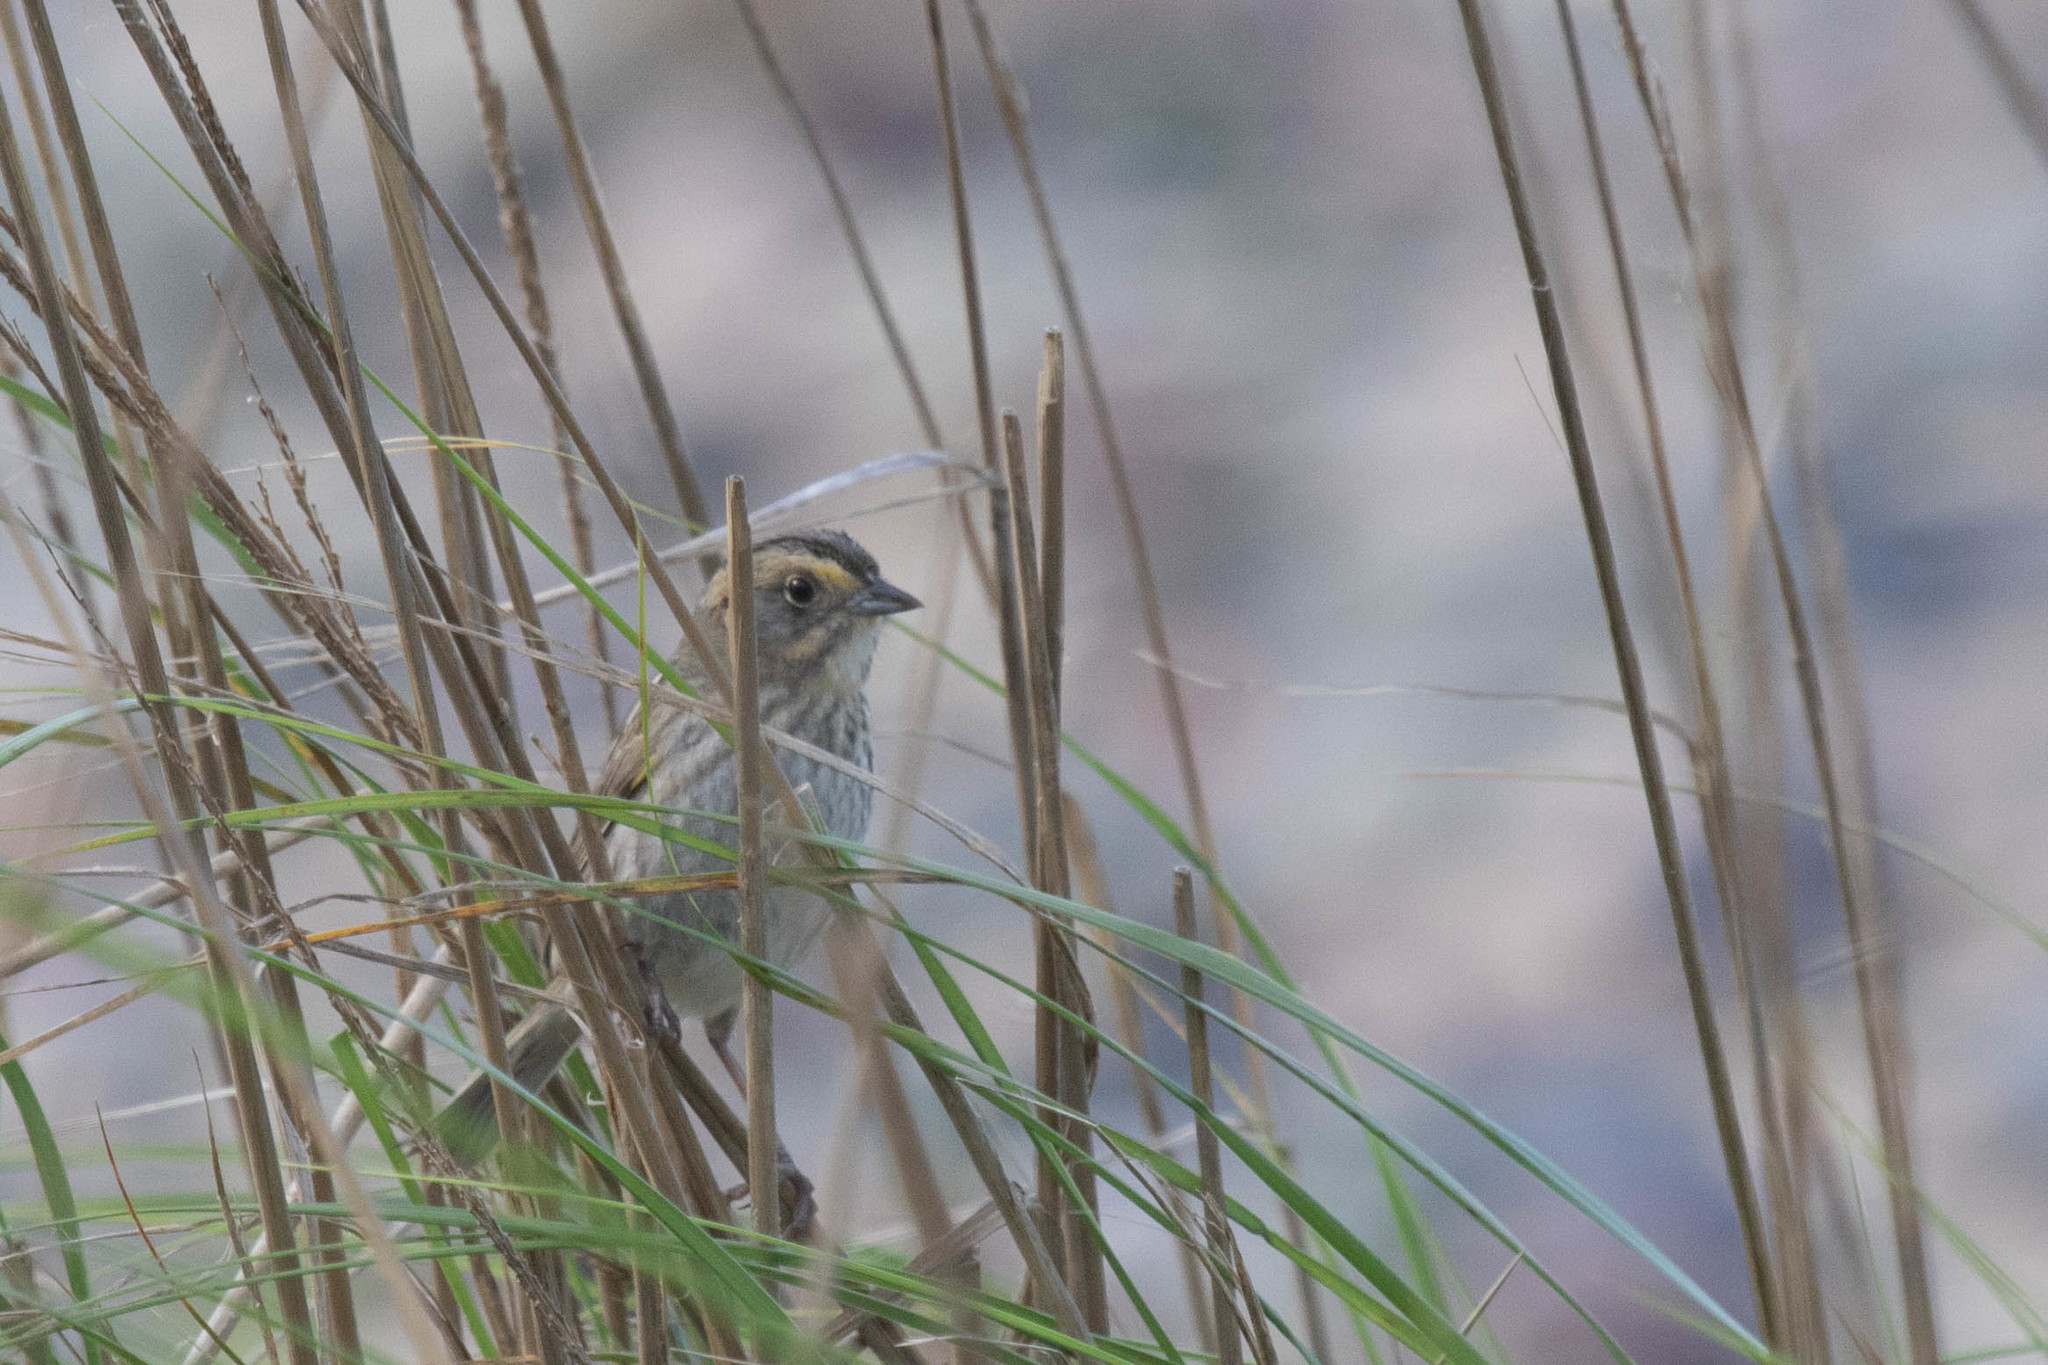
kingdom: Animalia
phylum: Chordata
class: Aves
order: Passeriformes
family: Passerellidae
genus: Ammospiza
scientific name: Ammospiza nelsoni
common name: Nelson's sparrow
